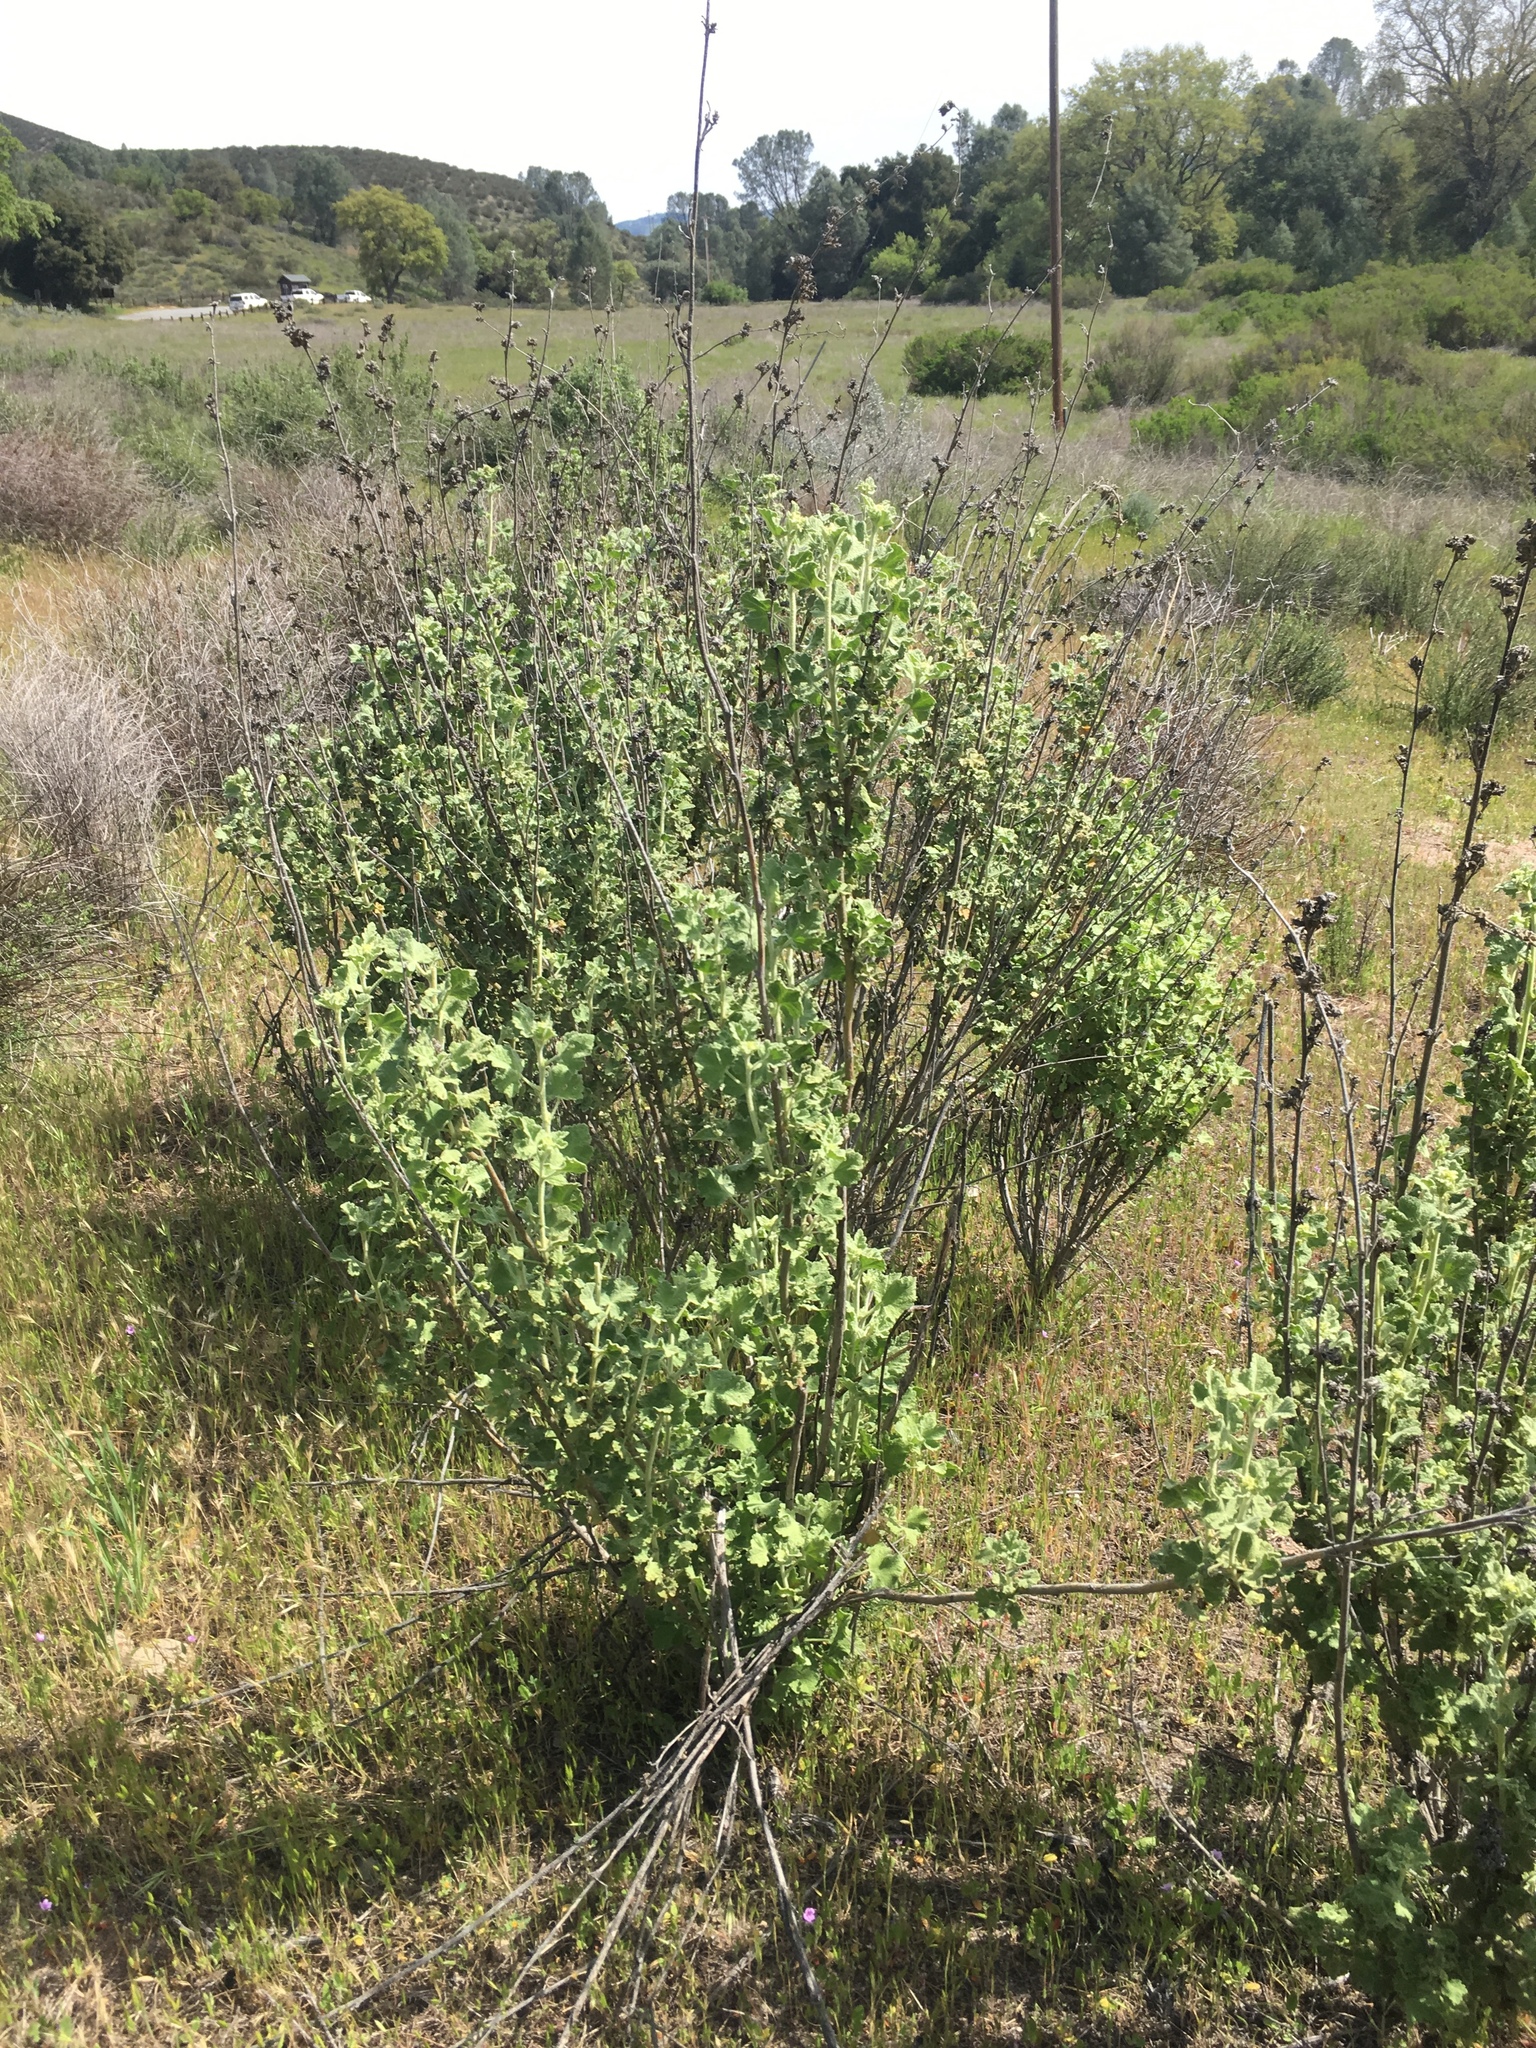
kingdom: Plantae
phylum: Tracheophyta
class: Magnoliopsida
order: Malvales
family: Malvaceae
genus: Malacothamnus
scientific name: Malacothamnus aboriginum
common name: Indian valley bush-mallow
